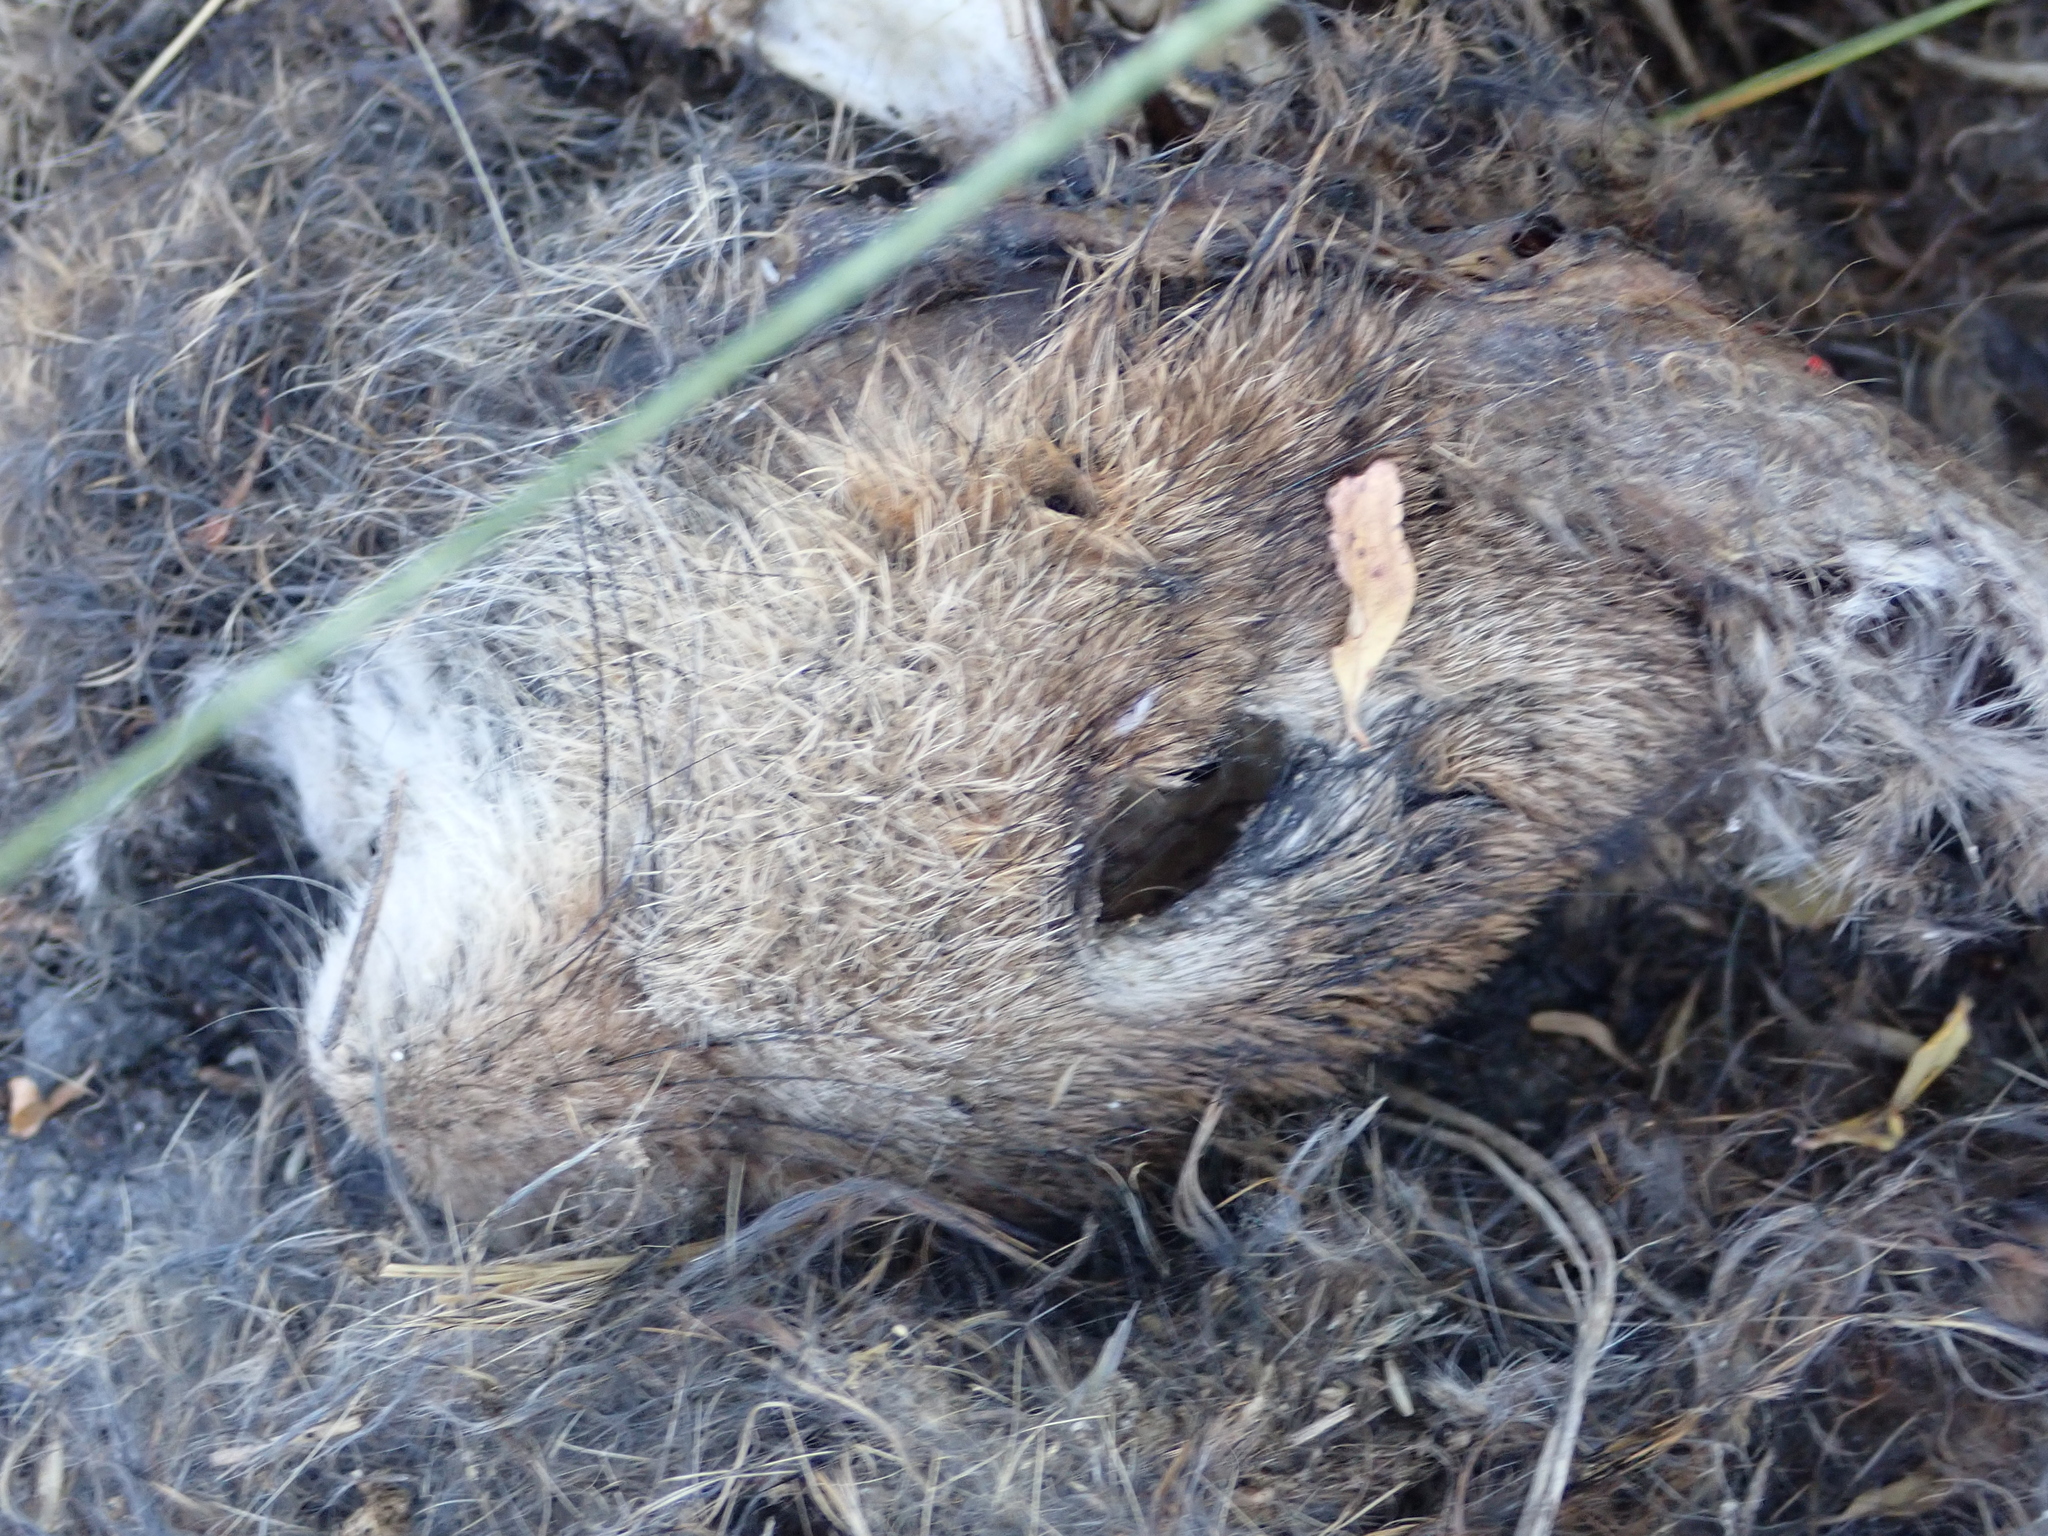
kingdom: Animalia
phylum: Chordata
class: Mammalia
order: Lagomorpha
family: Leporidae
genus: Oryctolagus
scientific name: Oryctolagus cuniculus
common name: European rabbit
